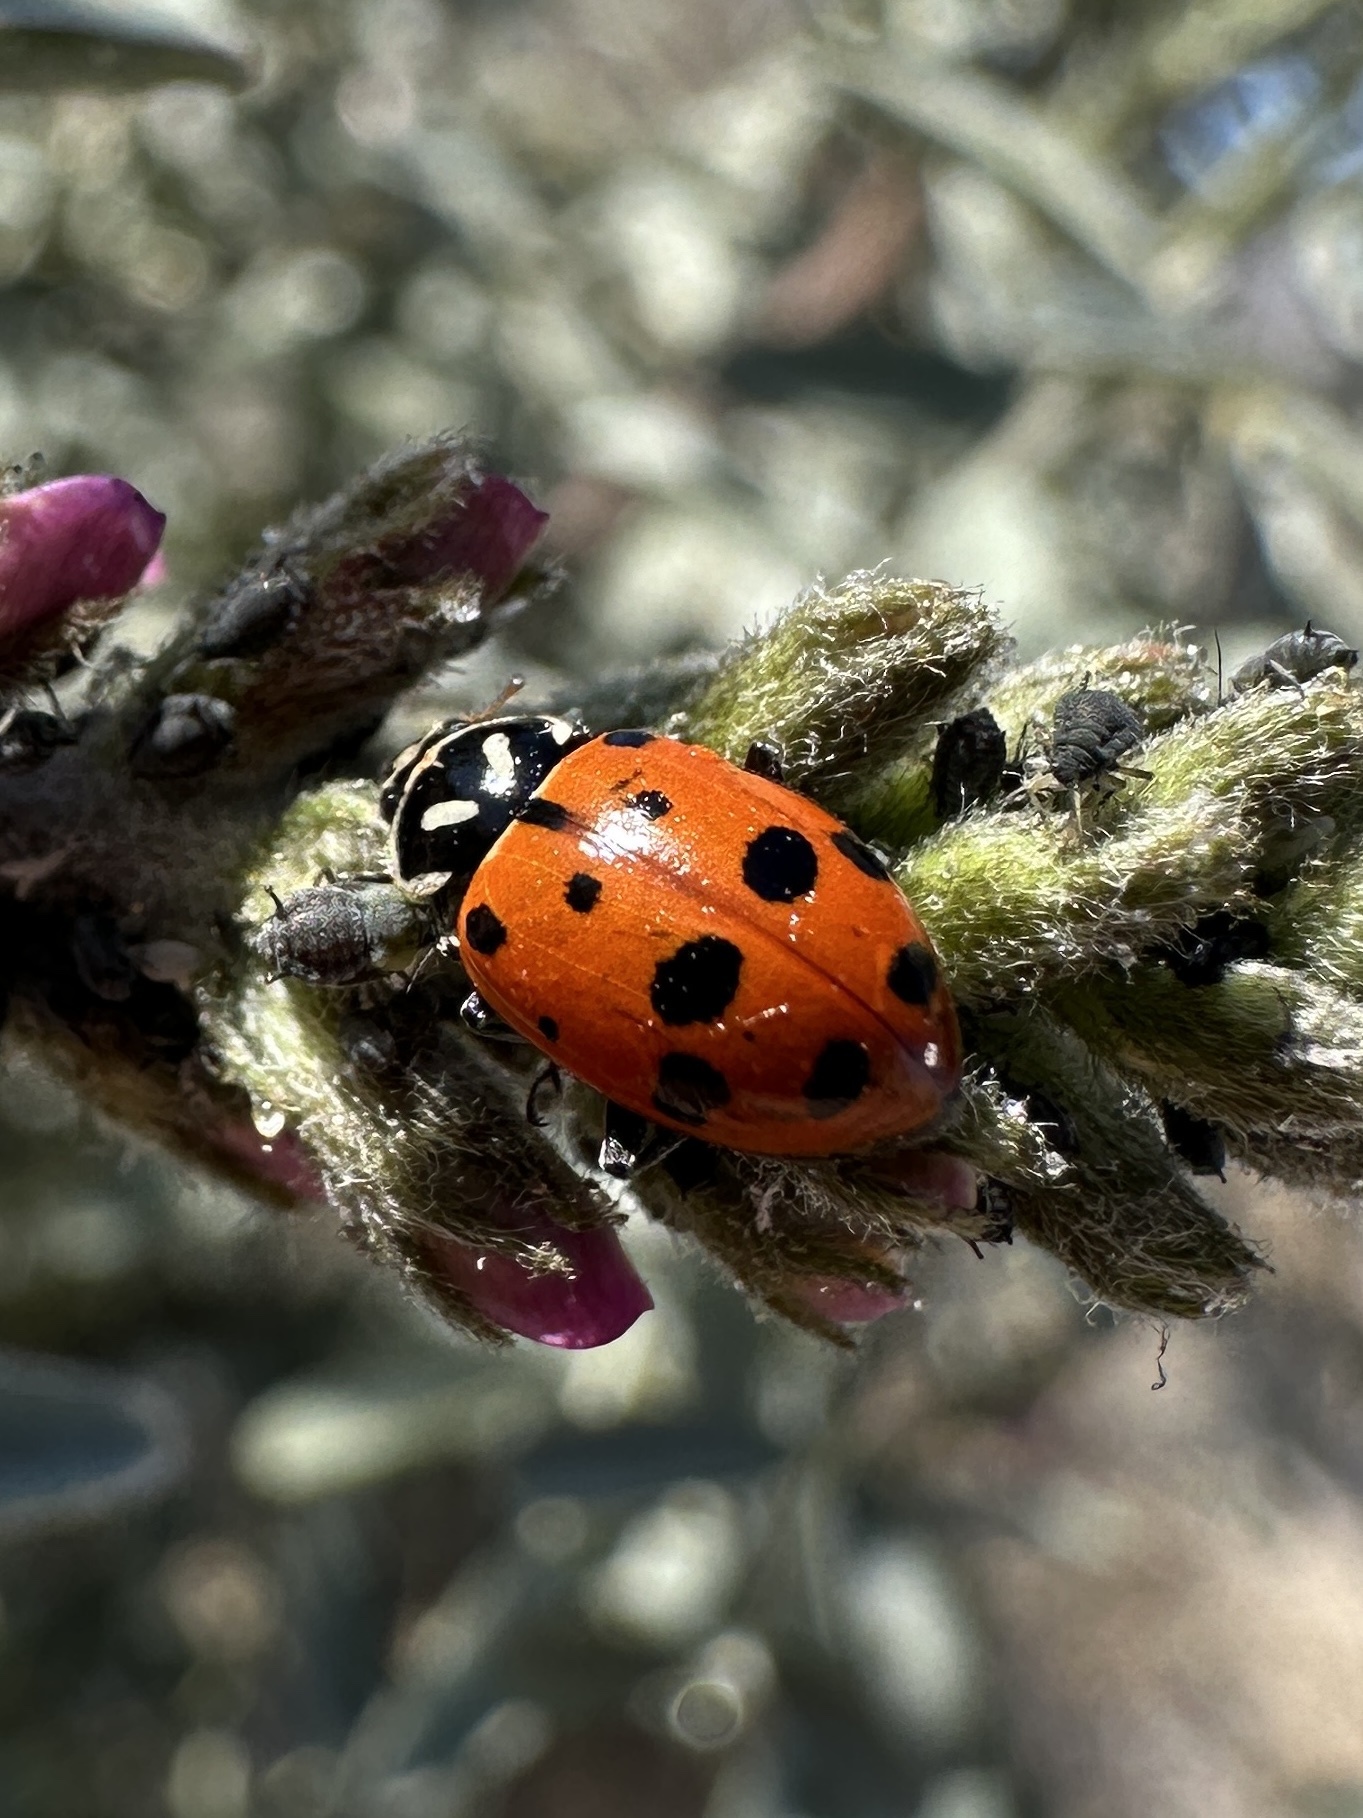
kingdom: Animalia
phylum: Arthropoda
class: Insecta
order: Coleoptera
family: Coccinellidae
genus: Hippodamia
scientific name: Hippodamia convergens
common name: Convergent lady beetle
